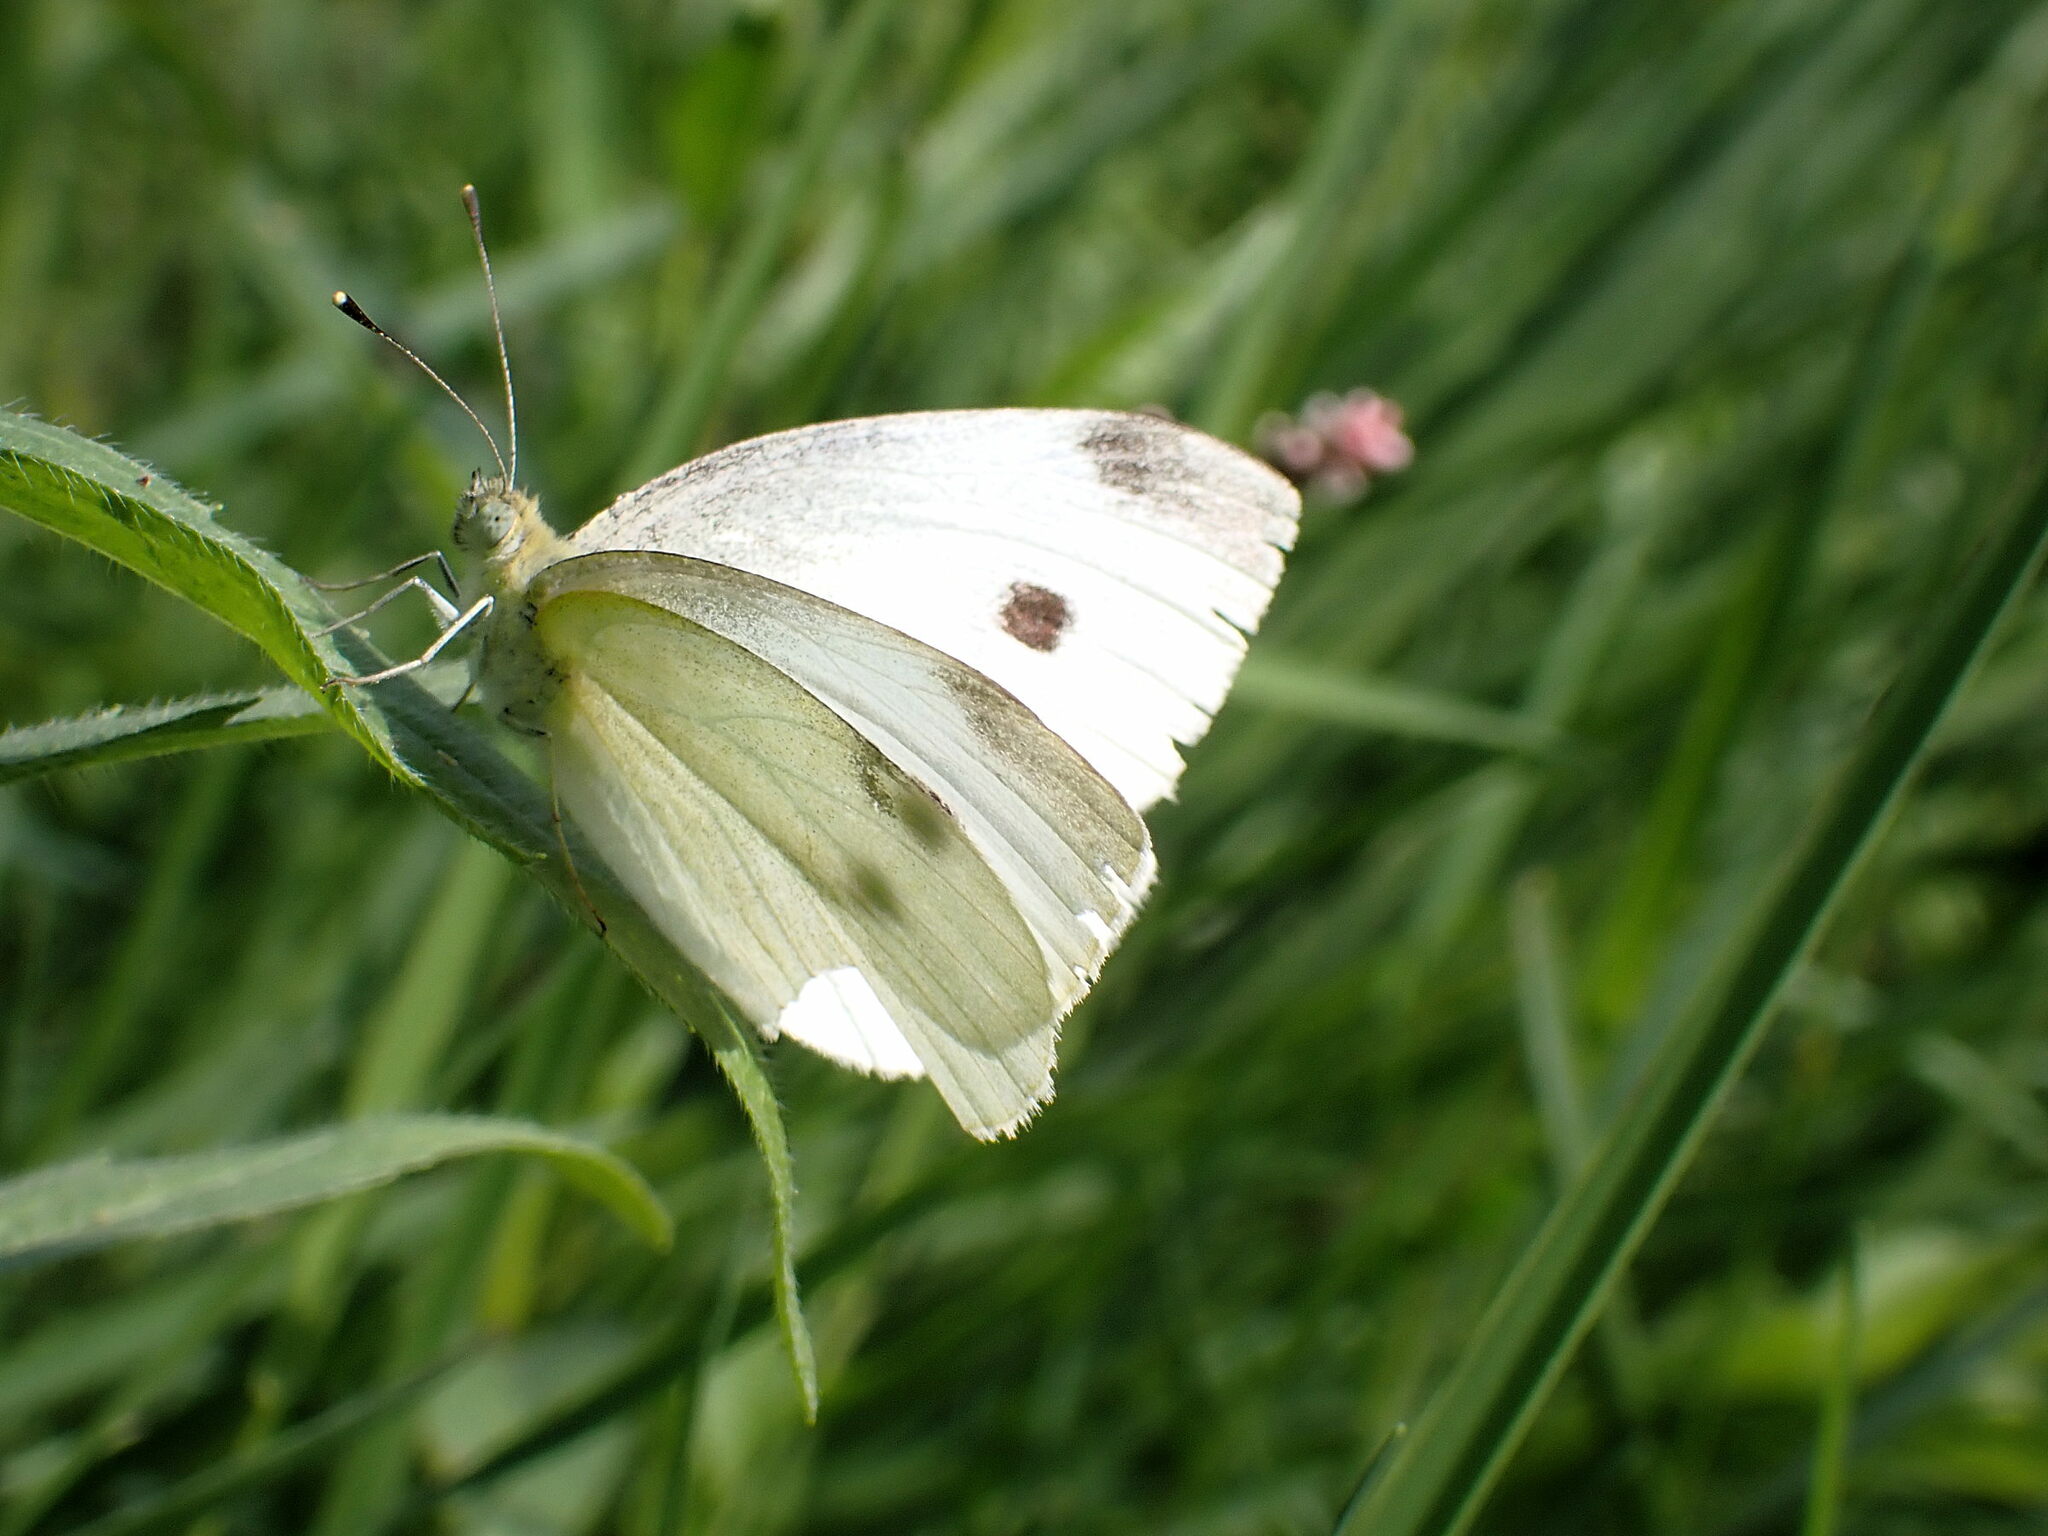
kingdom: Animalia
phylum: Arthropoda
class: Insecta
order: Lepidoptera
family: Pieridae
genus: Pieris
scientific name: Pieris rapae
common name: Small white
